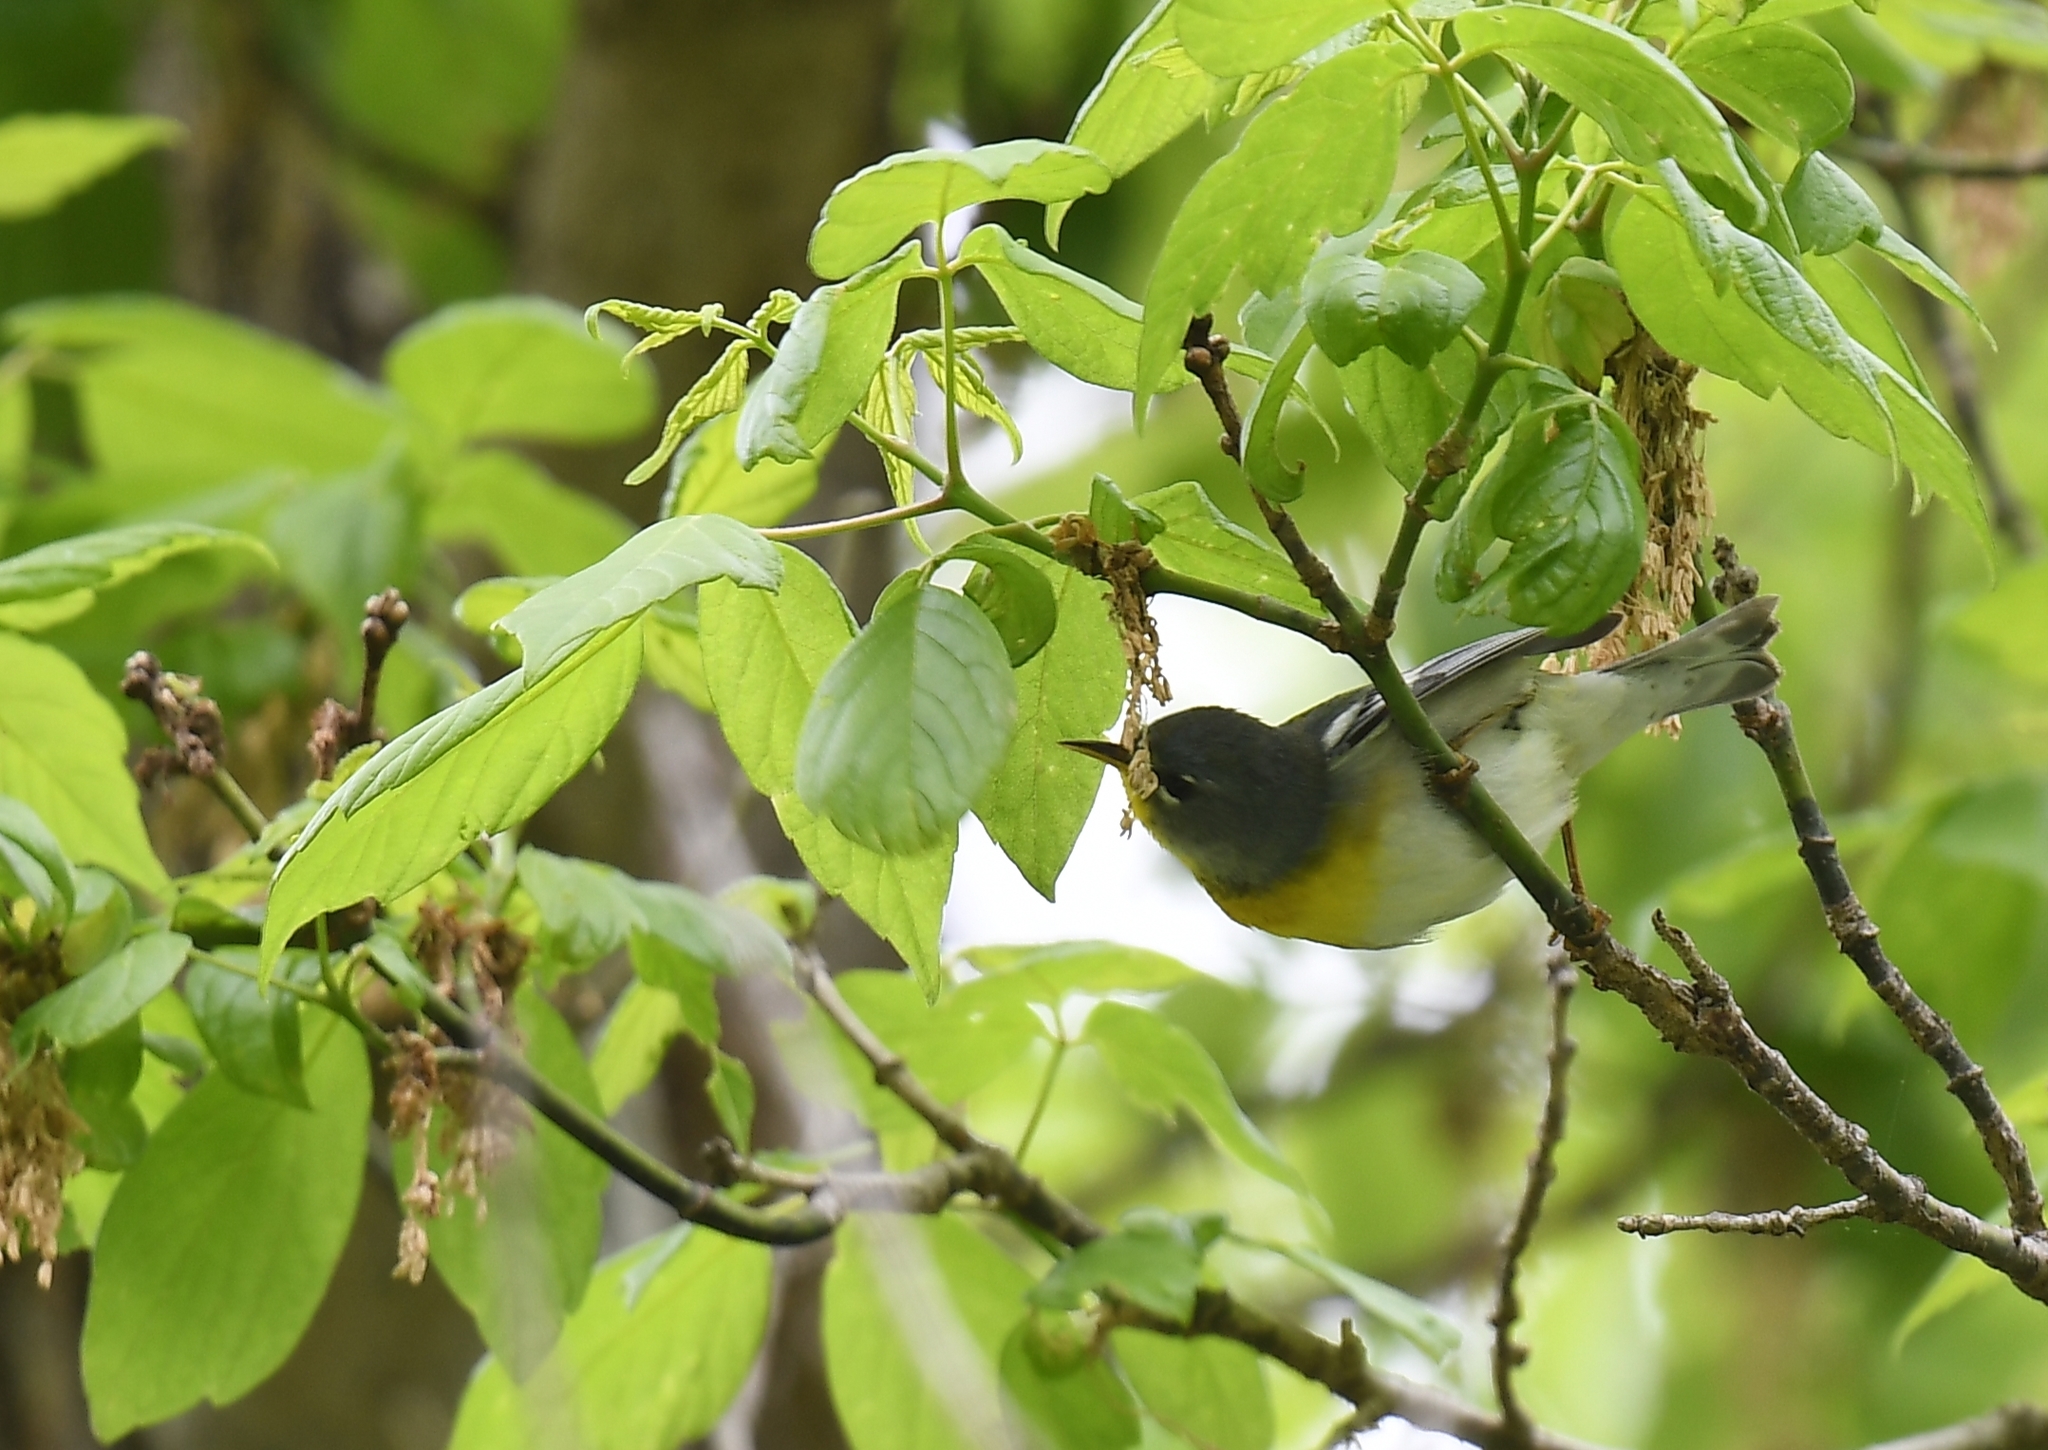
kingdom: Animalia
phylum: Chordata
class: Aves
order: Passeriformes
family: Parulidae
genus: Setophaga
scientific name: Setophaga americana
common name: Northern parula
